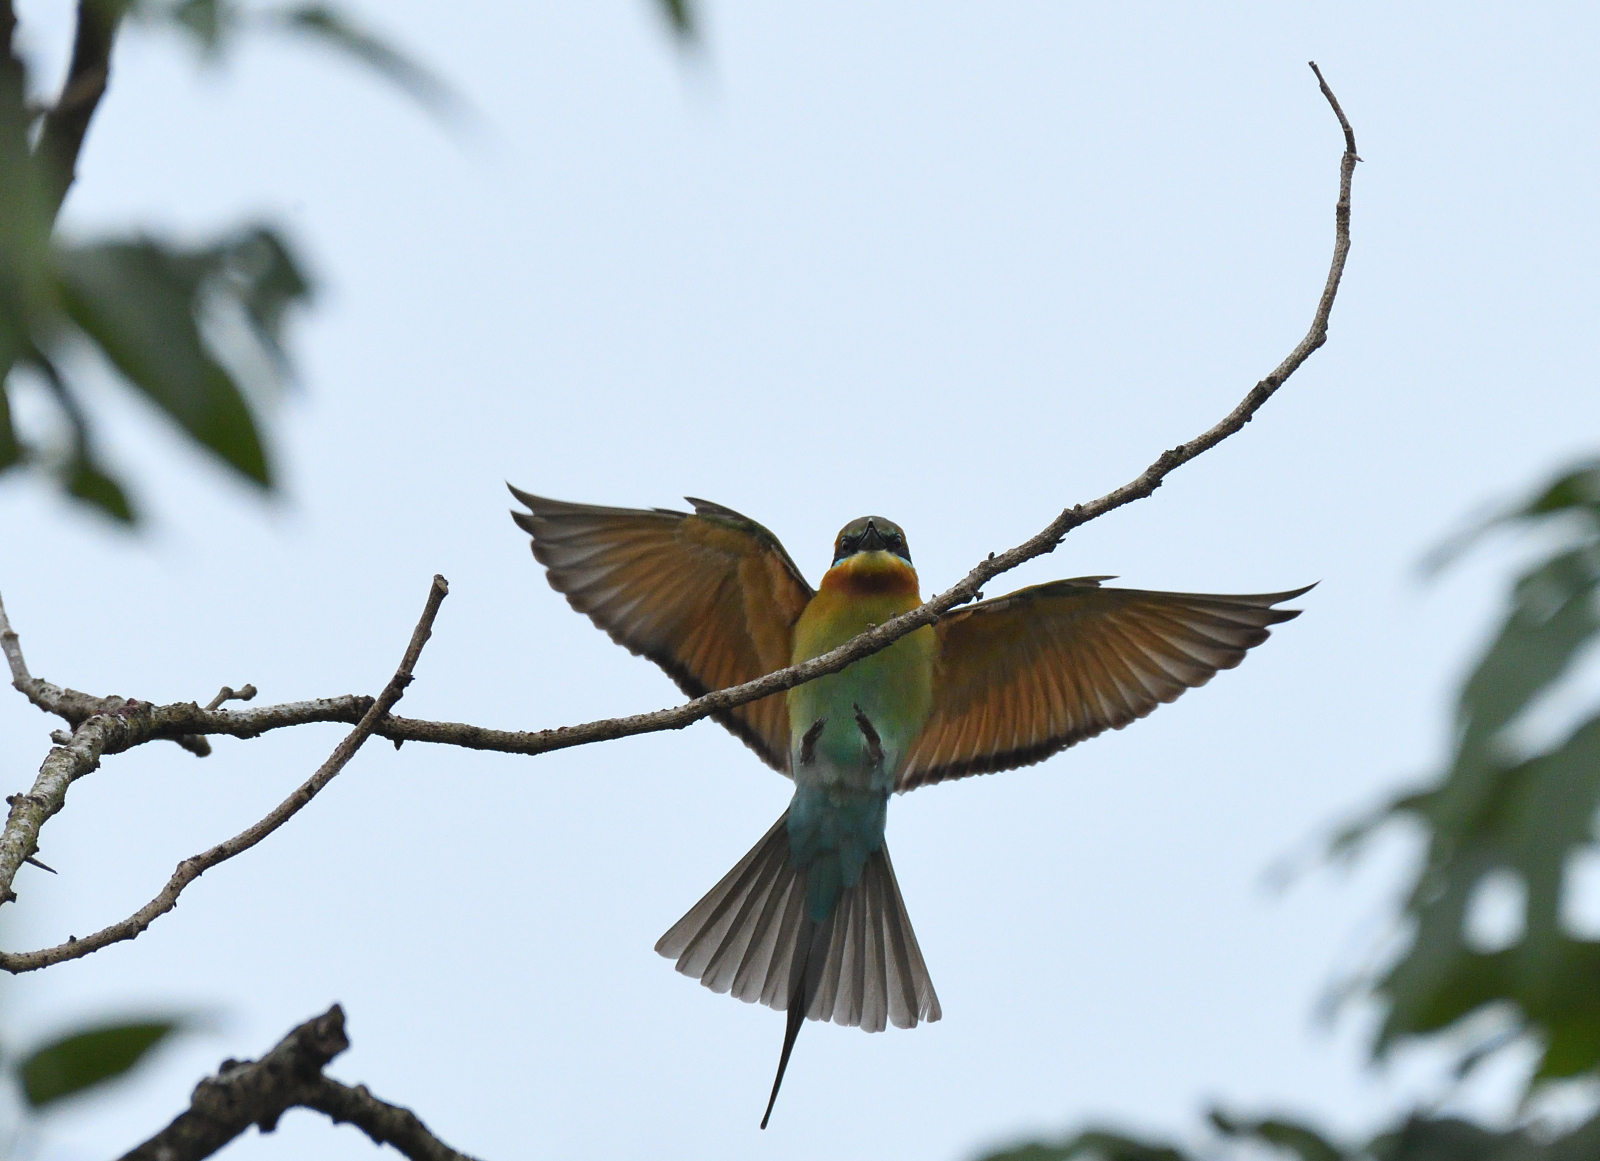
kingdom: Animalia
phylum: Chordata
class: Aves
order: Coraciiformes
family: Meropidae
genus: Merops
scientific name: Merops philippinus
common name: Blue-tailed bee-eater
